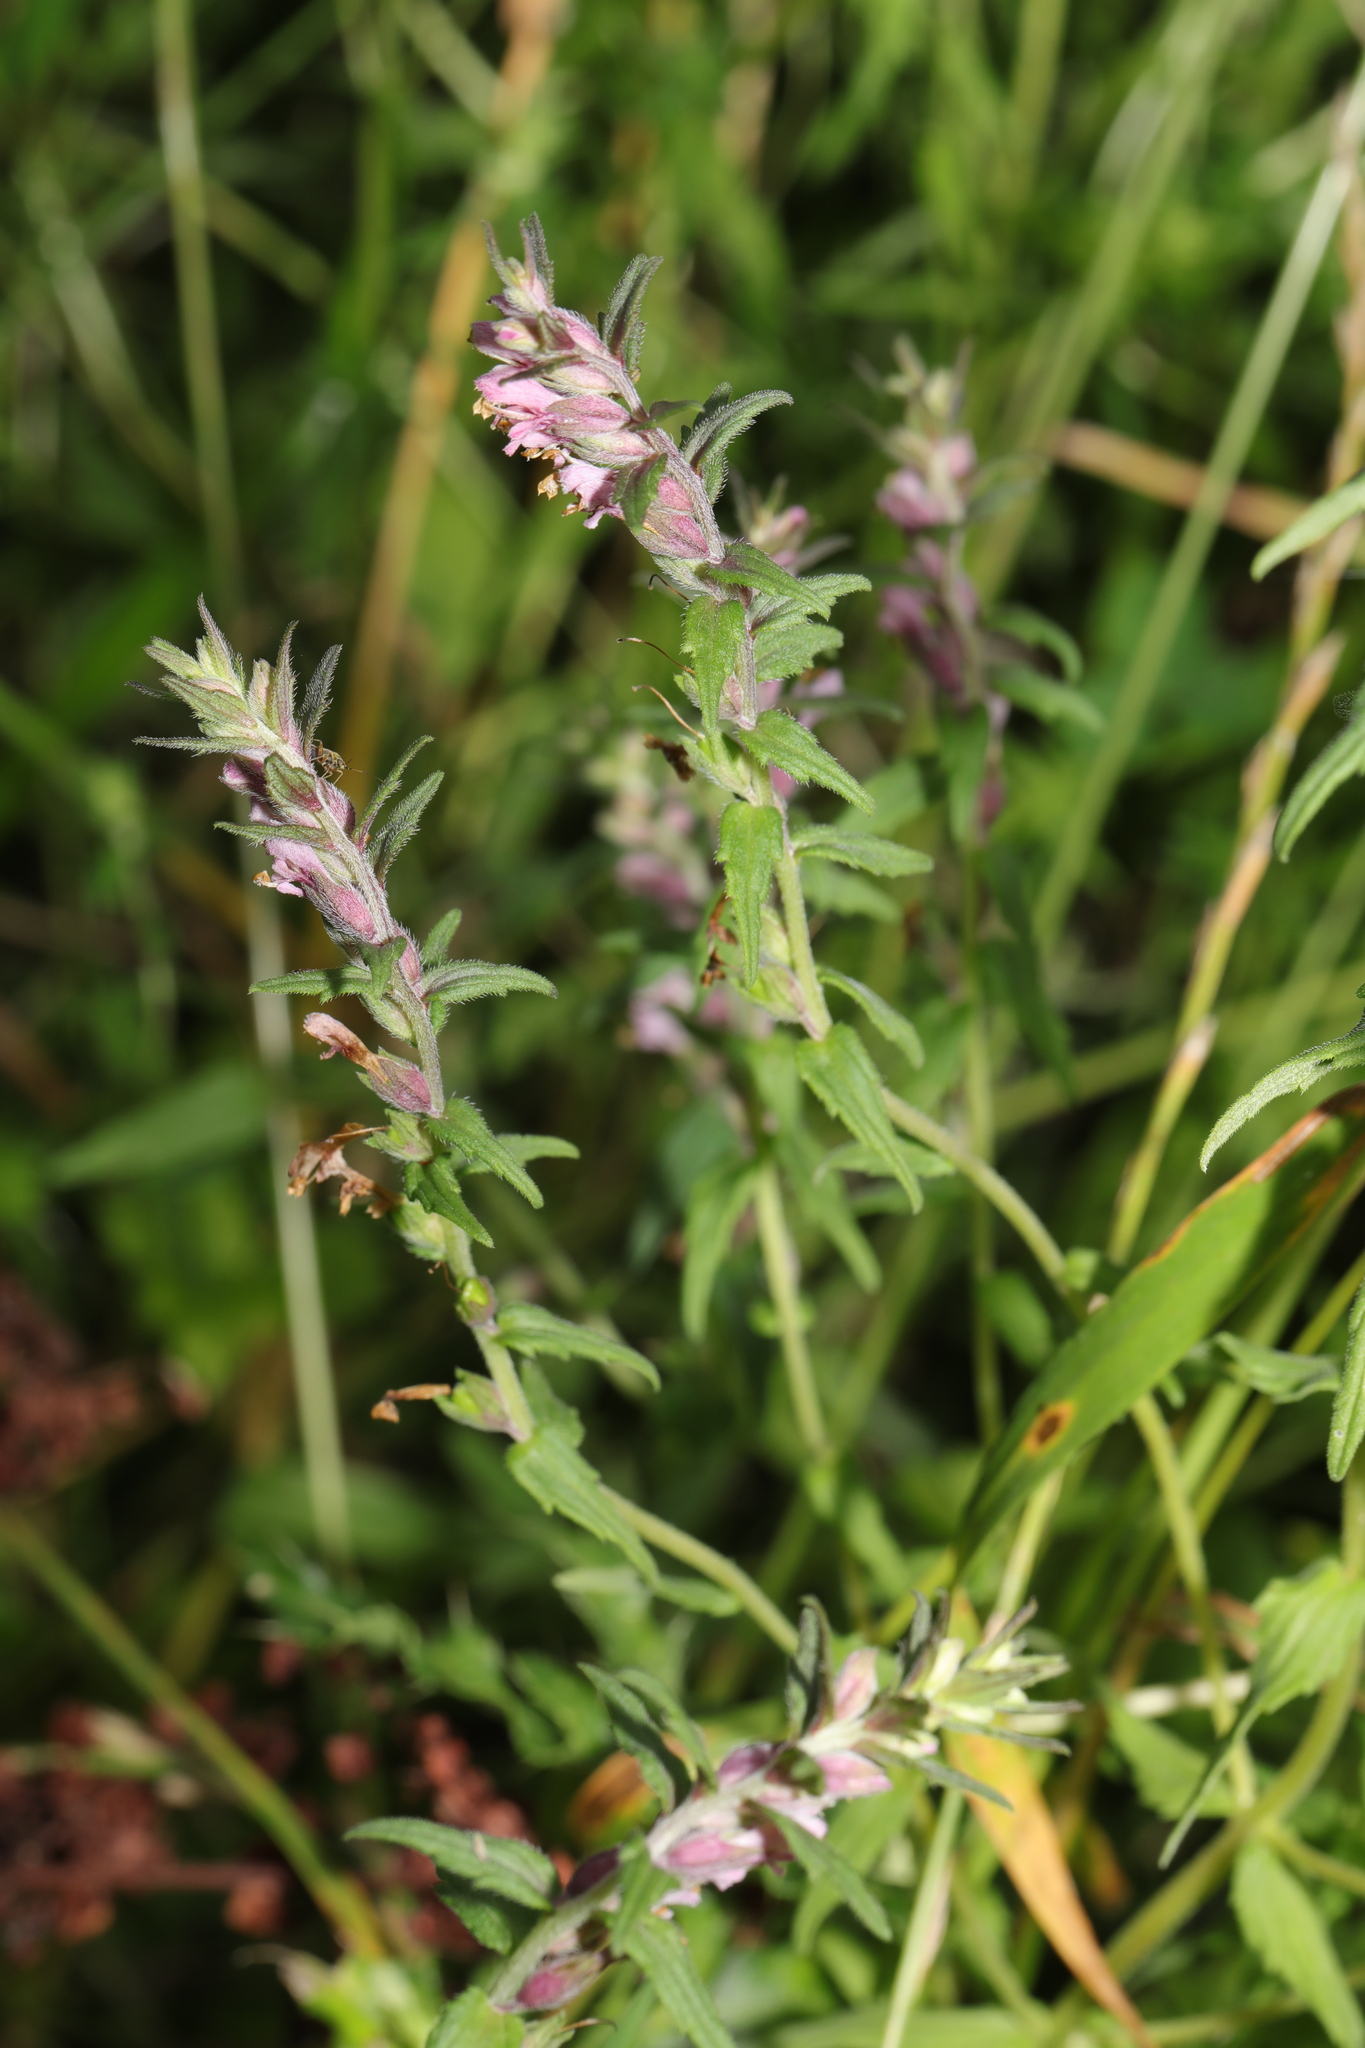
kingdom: Plantae
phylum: Tracheophyta
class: Magnoliopsida
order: Lamiales
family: Orobanchaceae
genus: Odontites
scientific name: Odontites vulgaris
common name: Broomrape
